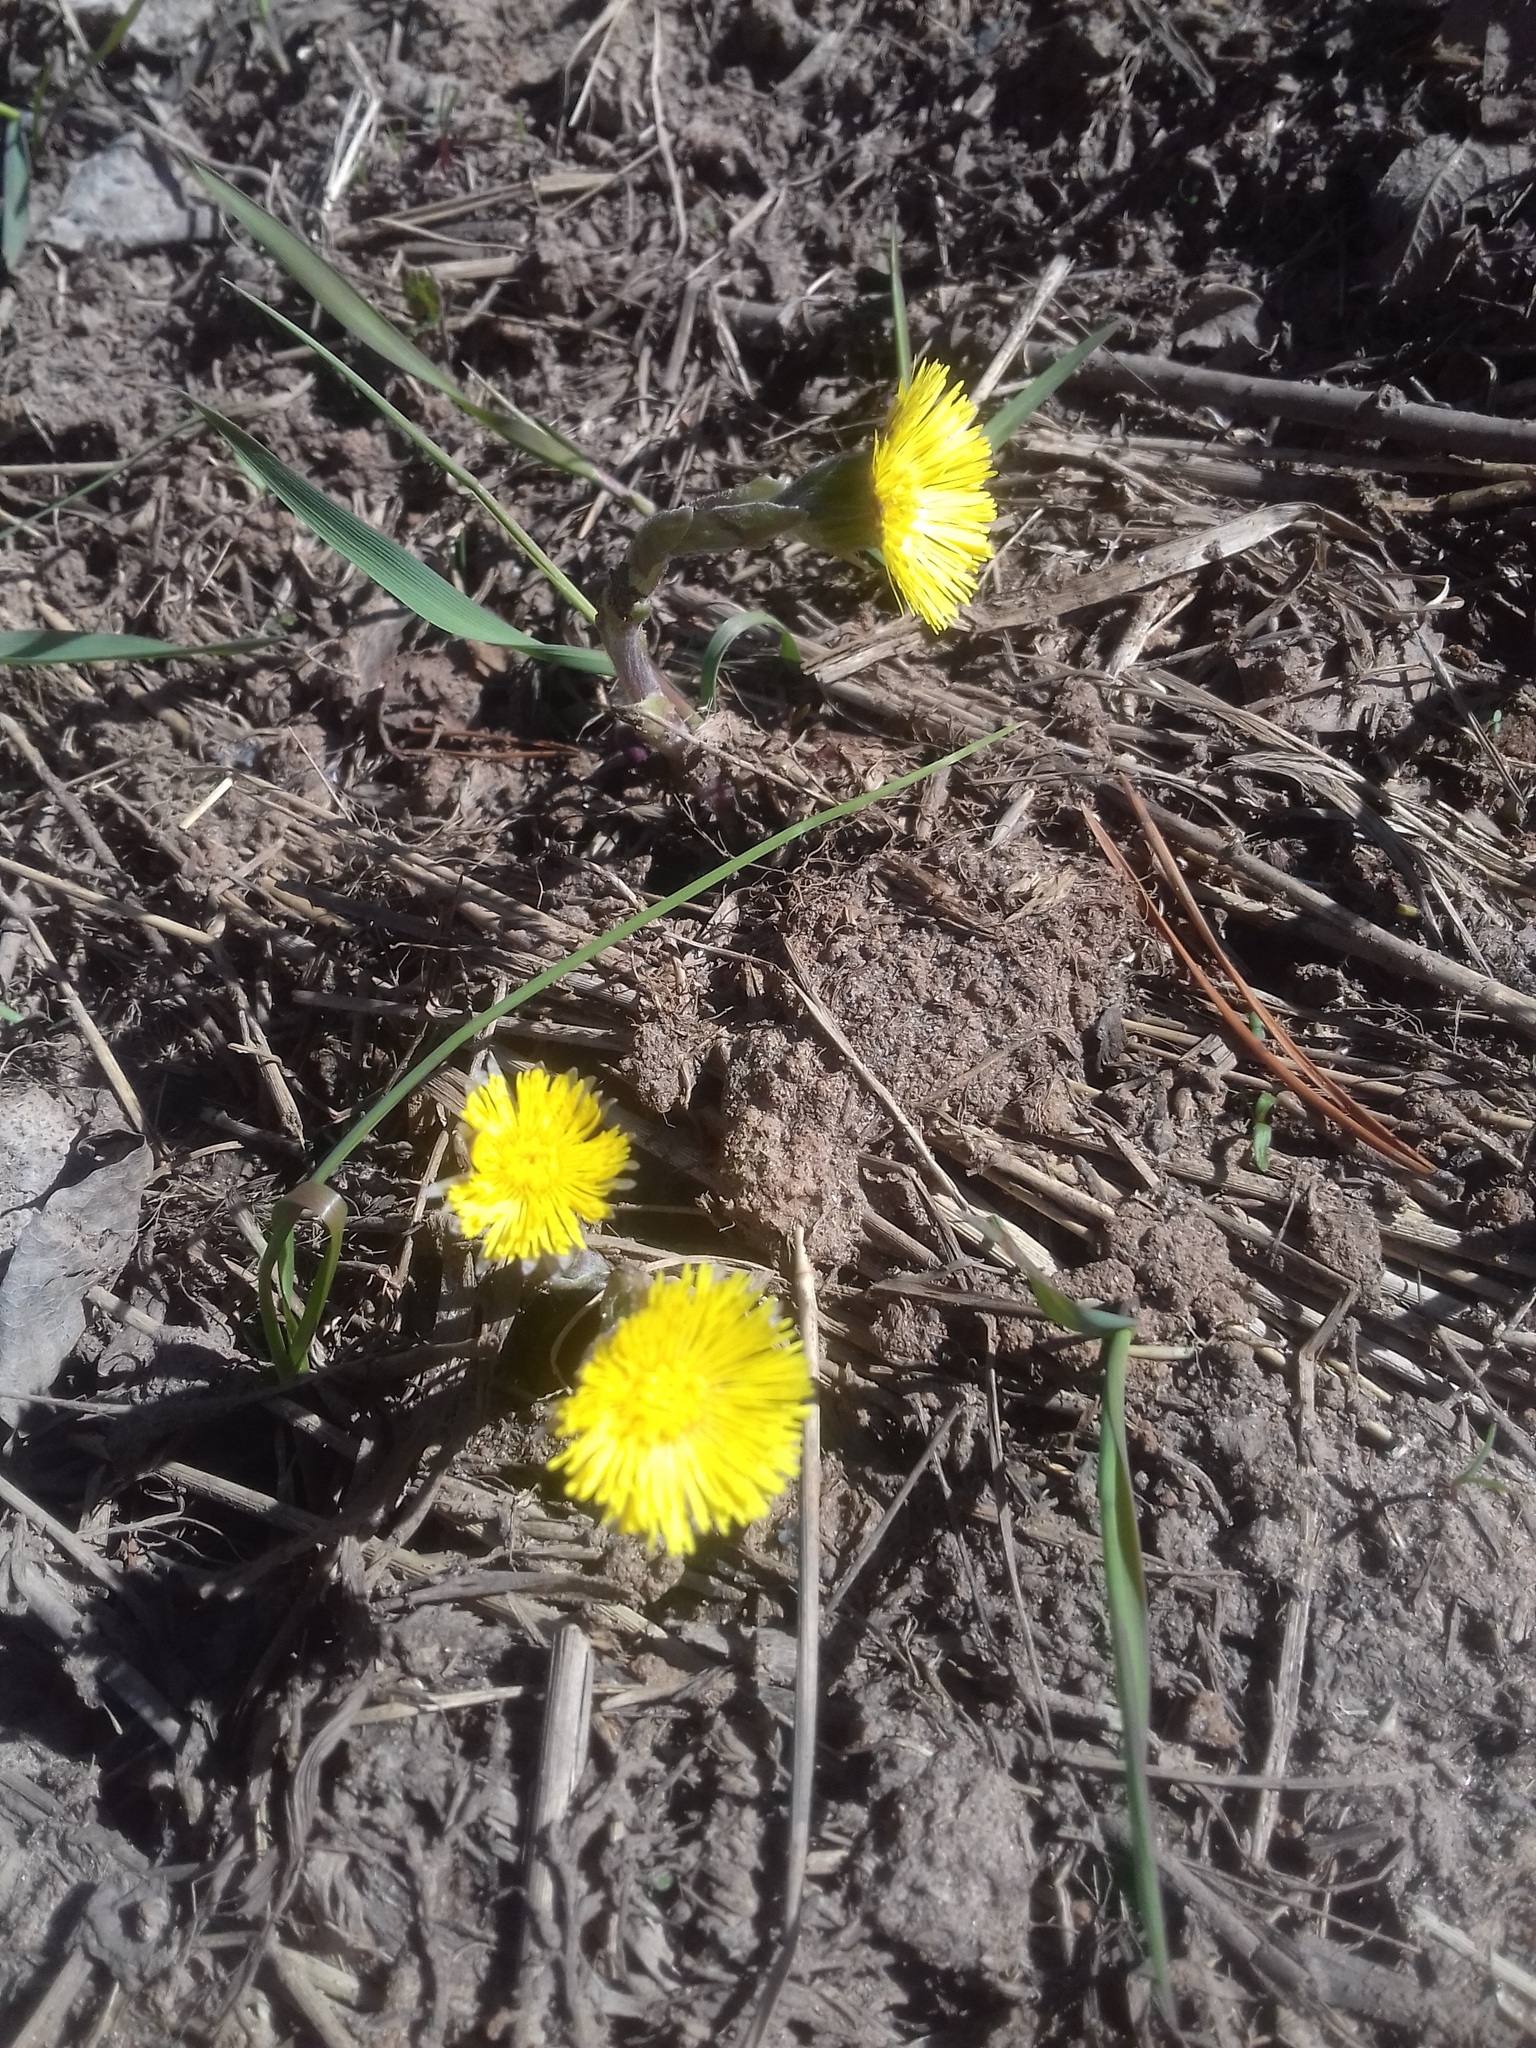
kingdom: Plantae
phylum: Tracheophyta
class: Magnoliopsida
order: Asterales
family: Asteraceae
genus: Tussilago
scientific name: Tussilago farfara
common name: Coltsfoot
